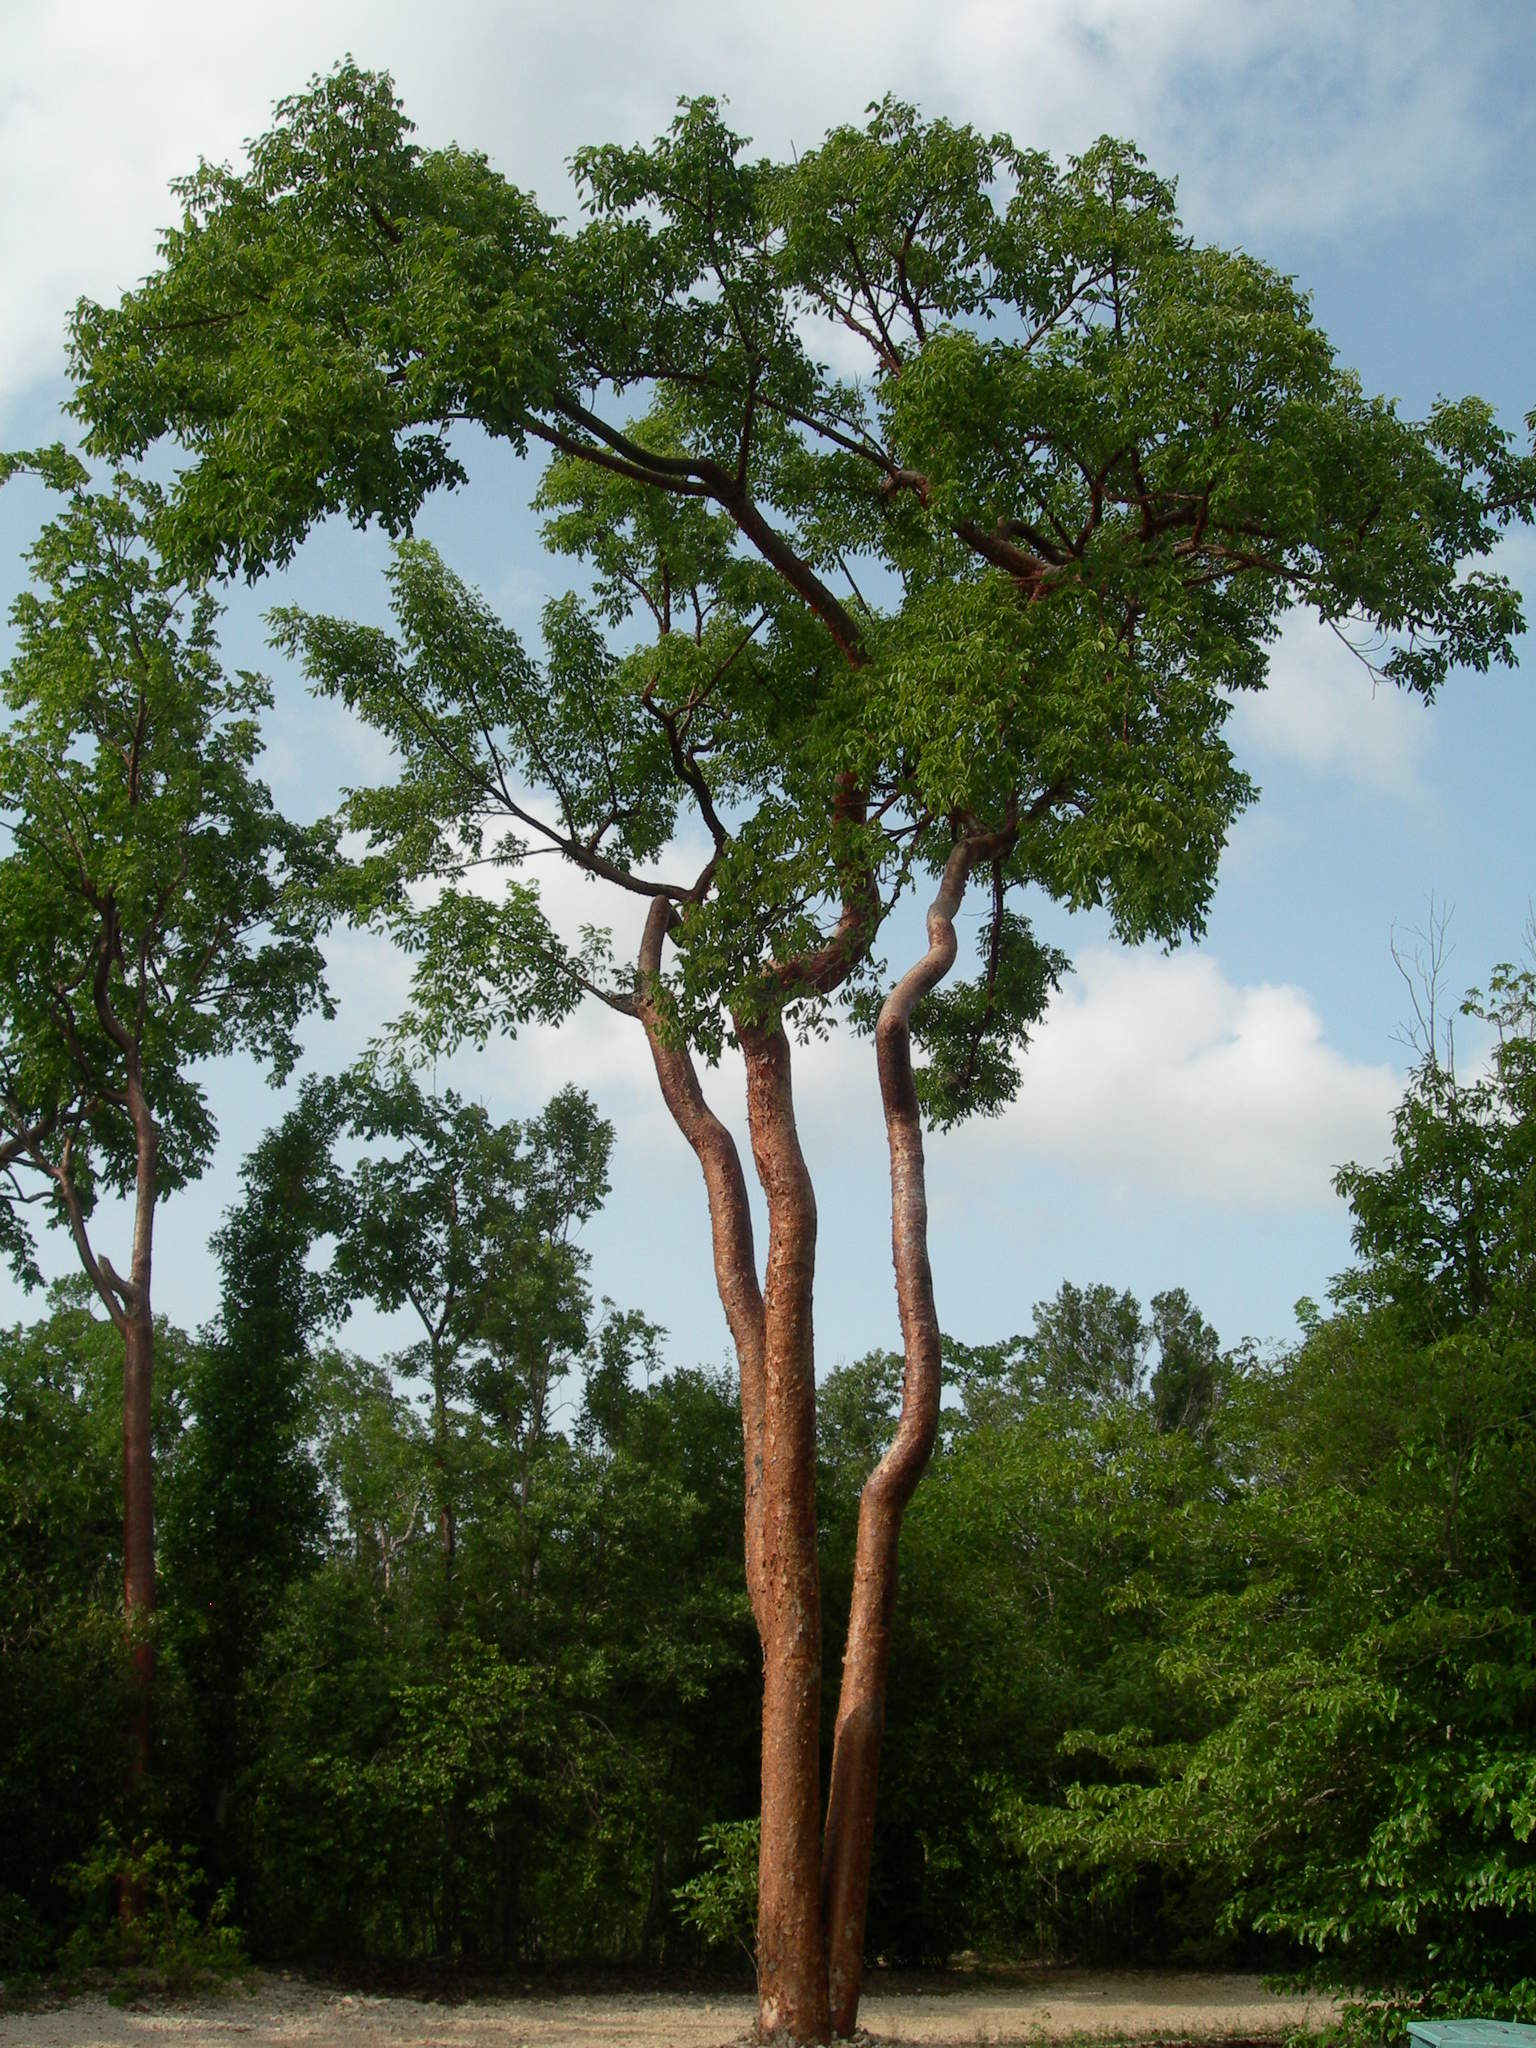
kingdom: Plantae
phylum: Tracheophyta
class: Magnoliopsida
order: Sapindales
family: Burseraceae
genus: Bursera
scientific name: Bursera simaruba
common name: Turpentine tree
